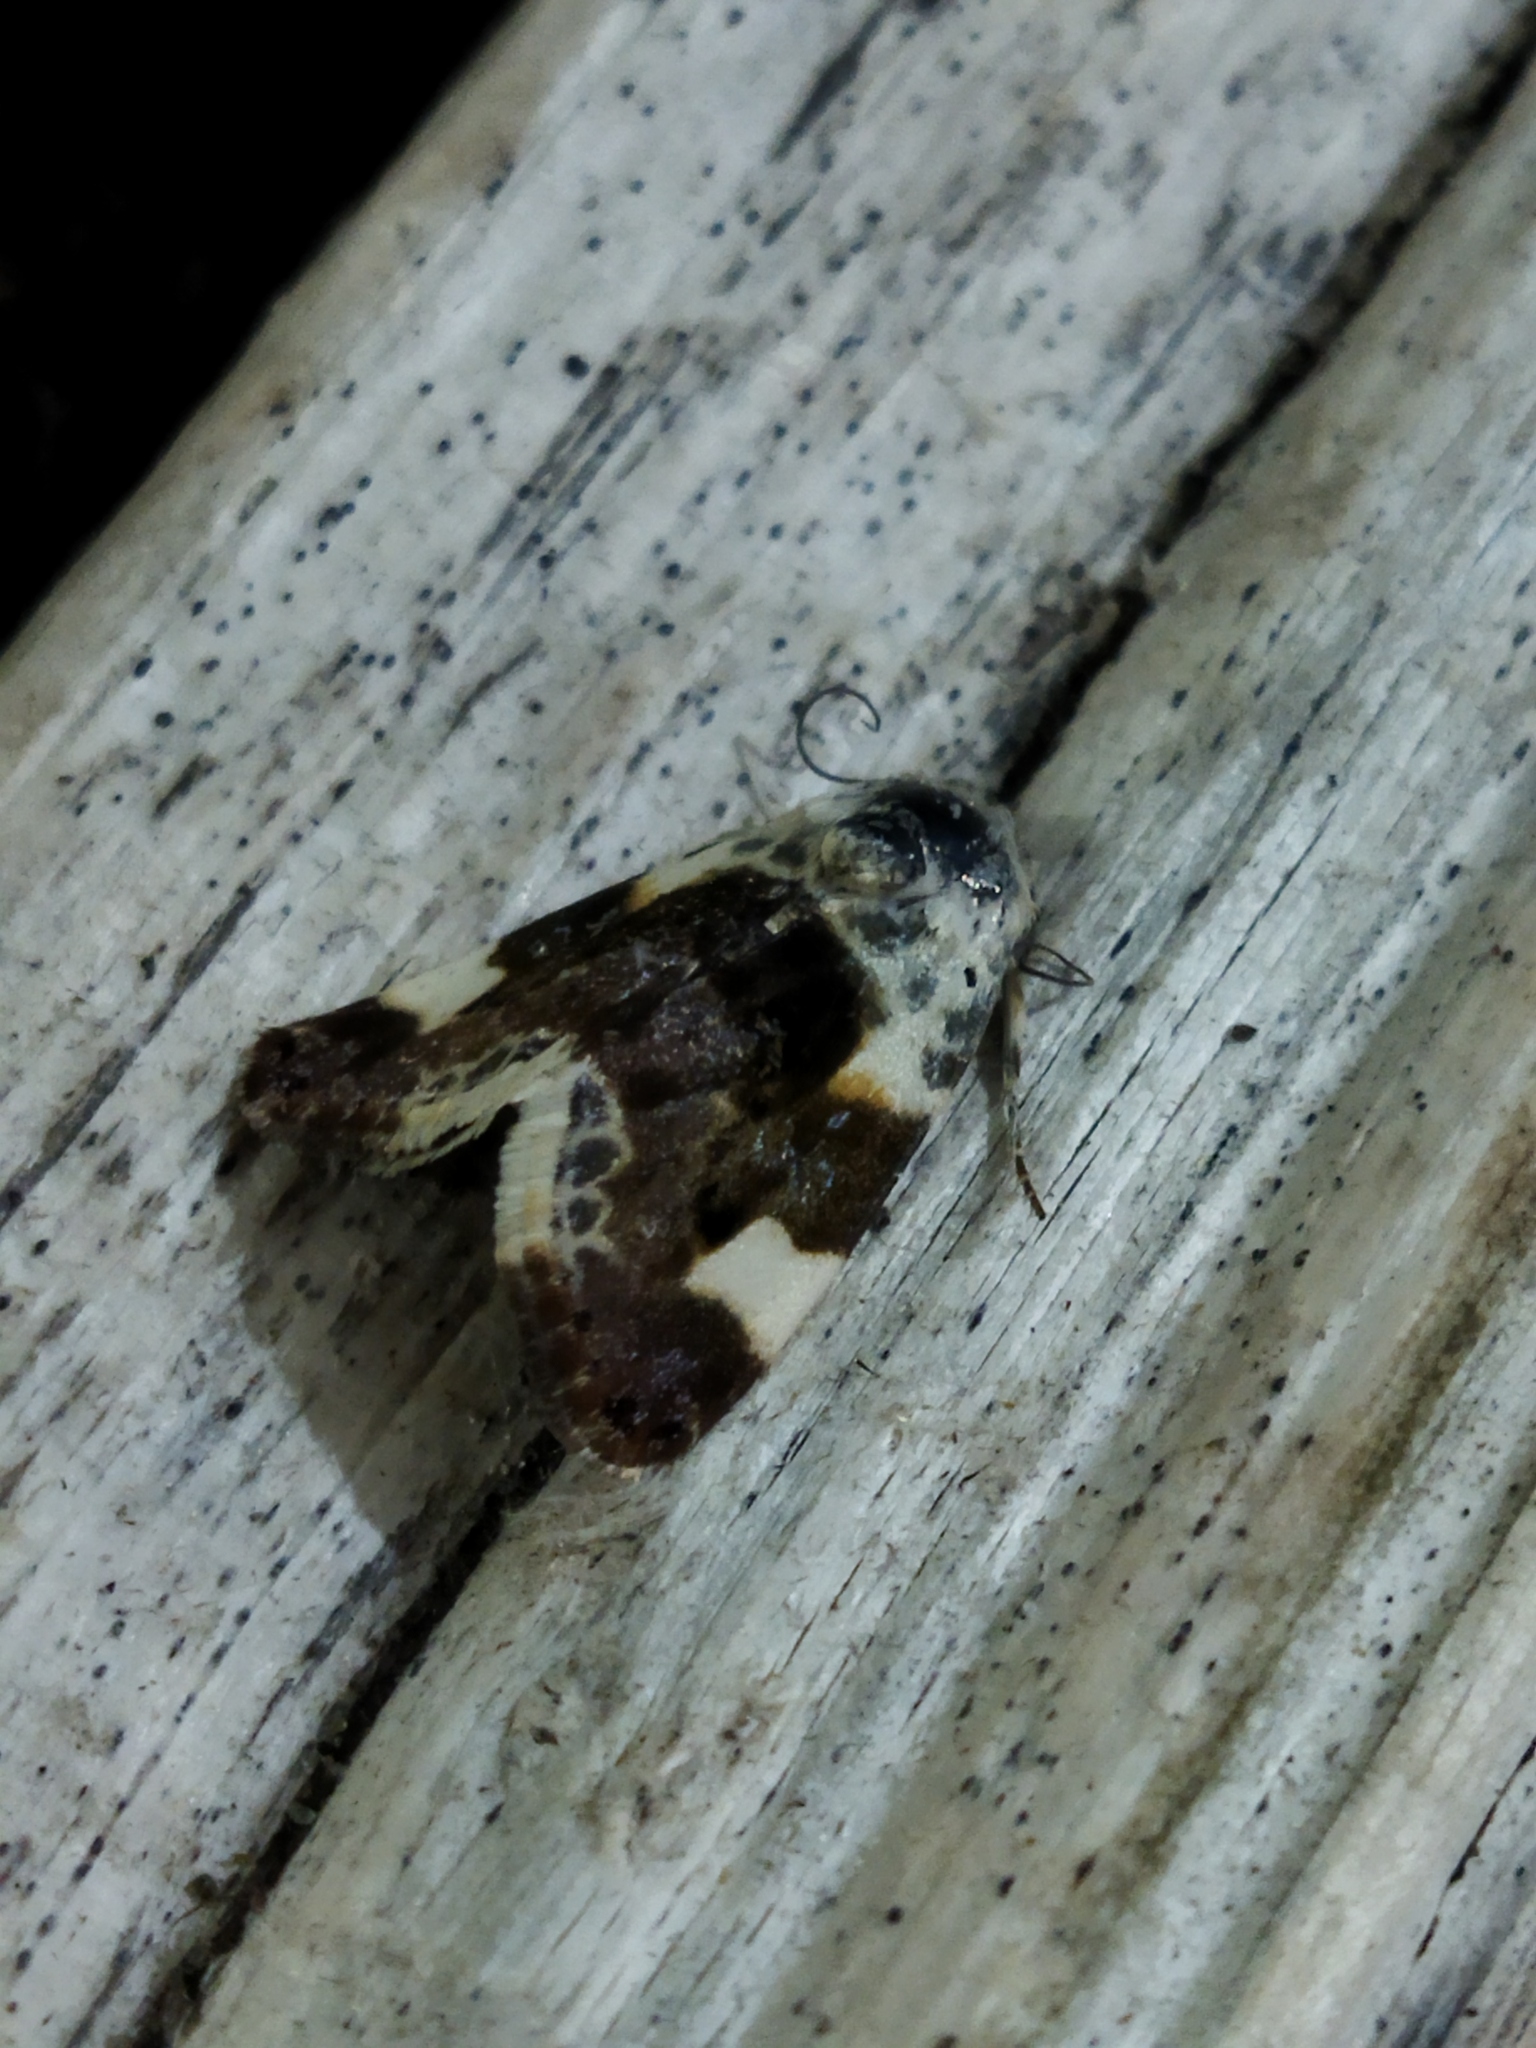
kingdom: Animalia
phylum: Arthropoda
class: Insecta
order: Lepidoptera
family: Noctuidae
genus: Acontia
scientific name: Acontia lucida
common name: Pale shoulder
